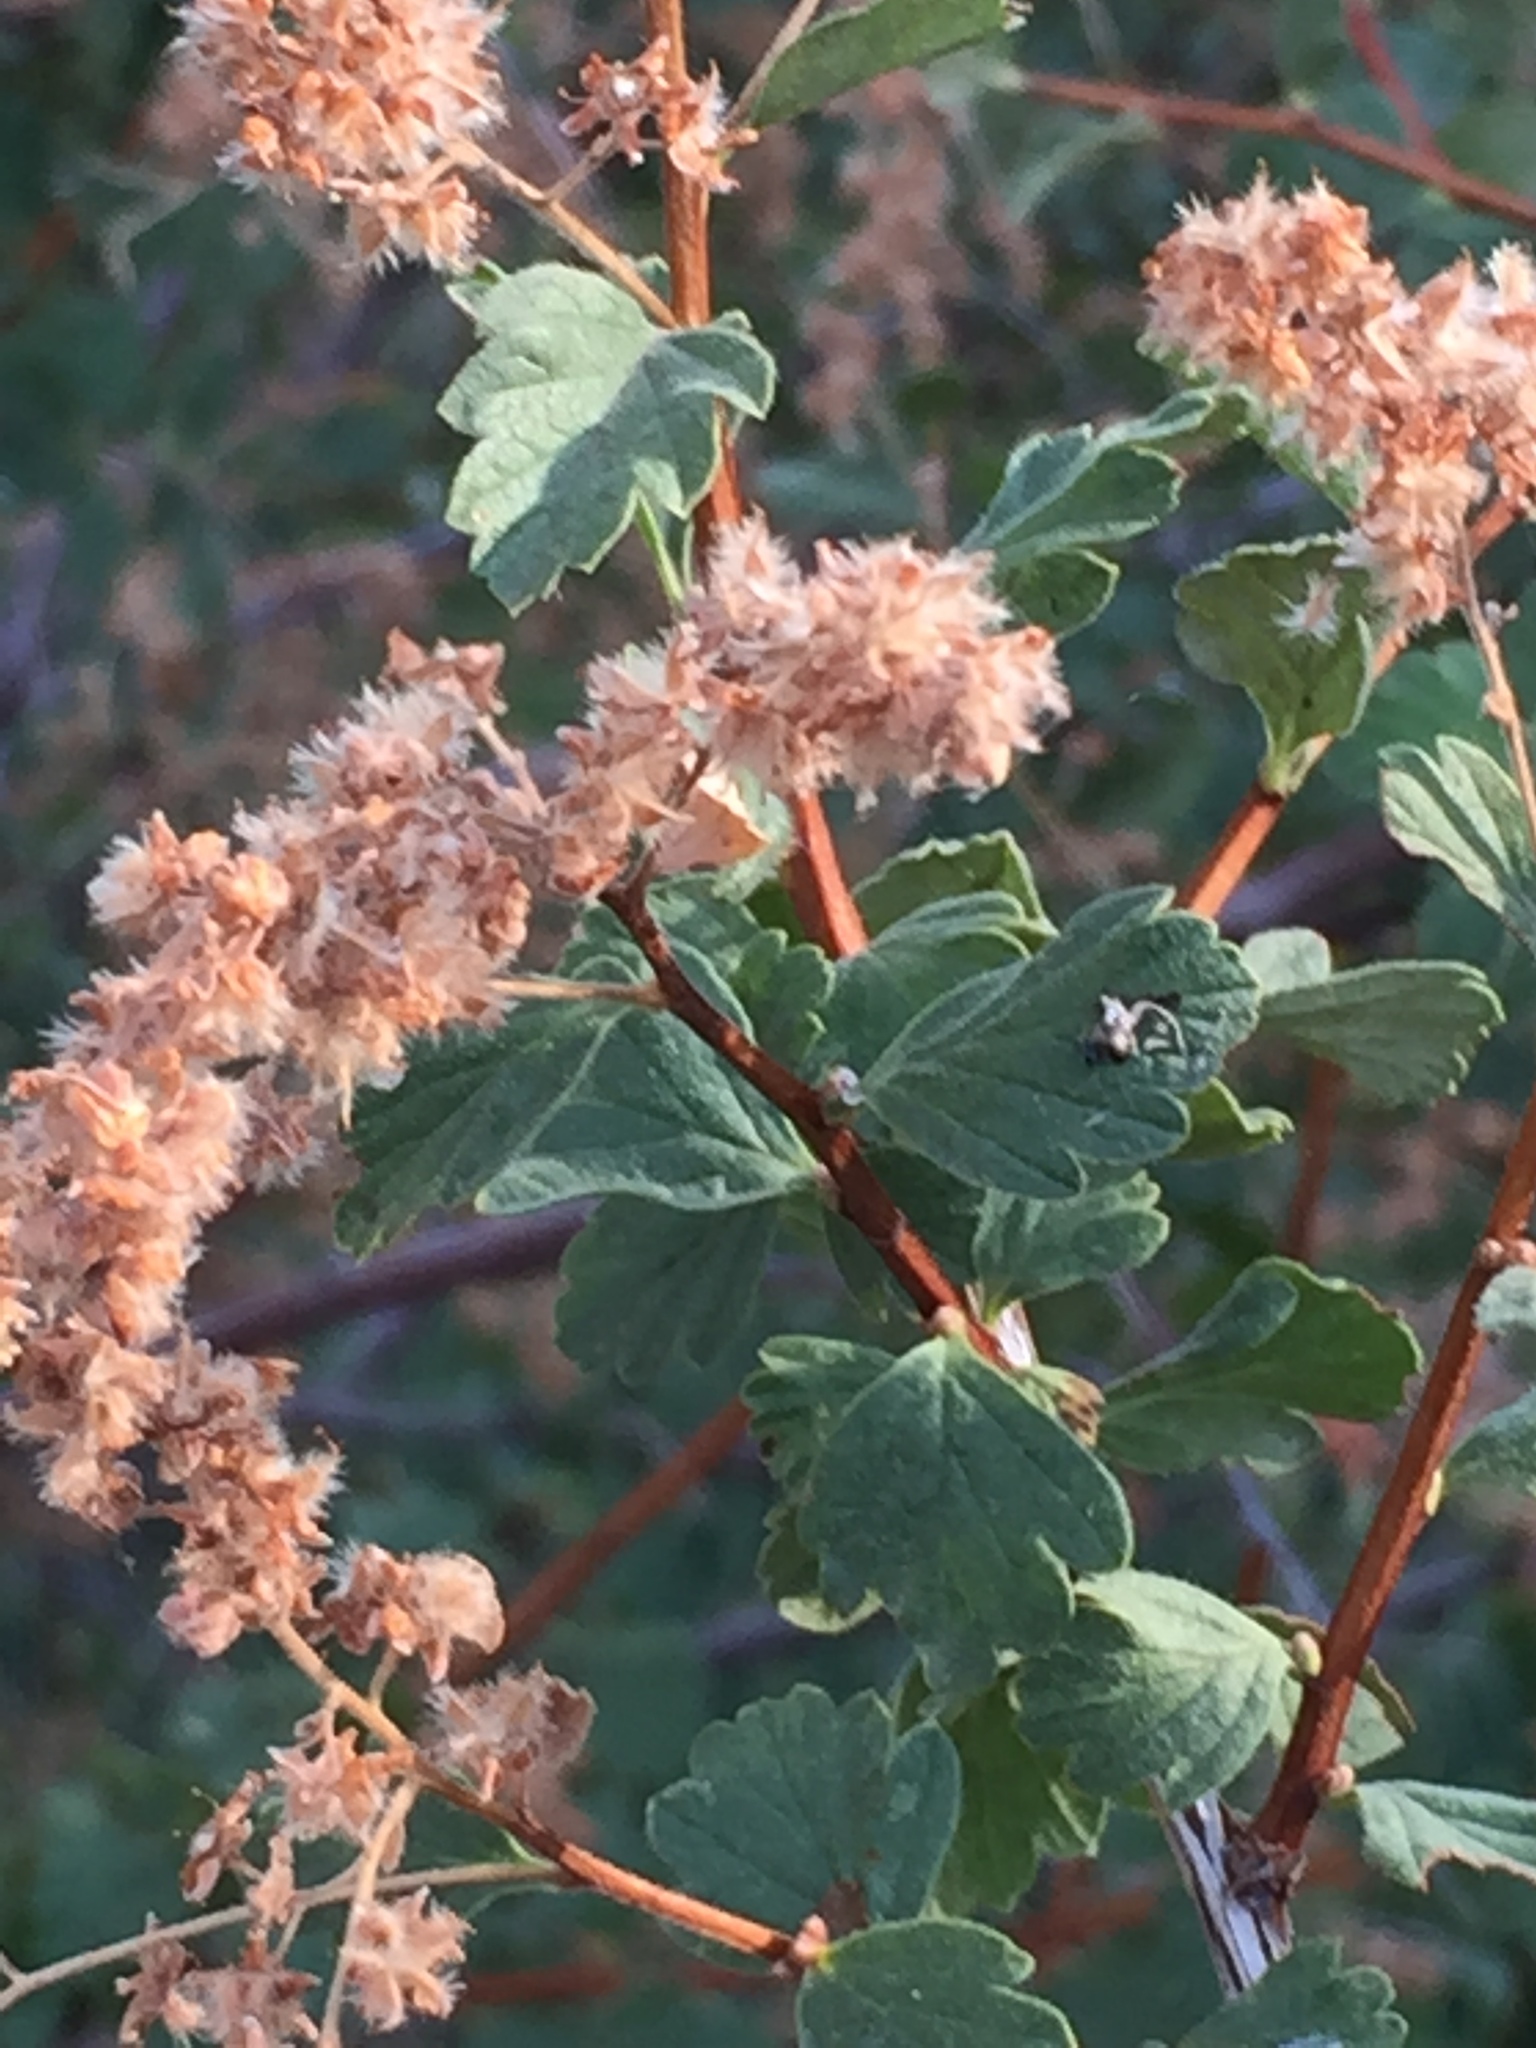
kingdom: Plantae
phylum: Tracheophyta
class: Magnoliopsida
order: Rosales
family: Rosaceae
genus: Holodiscus
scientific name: Holodiscus discolor
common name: Oceanspray
